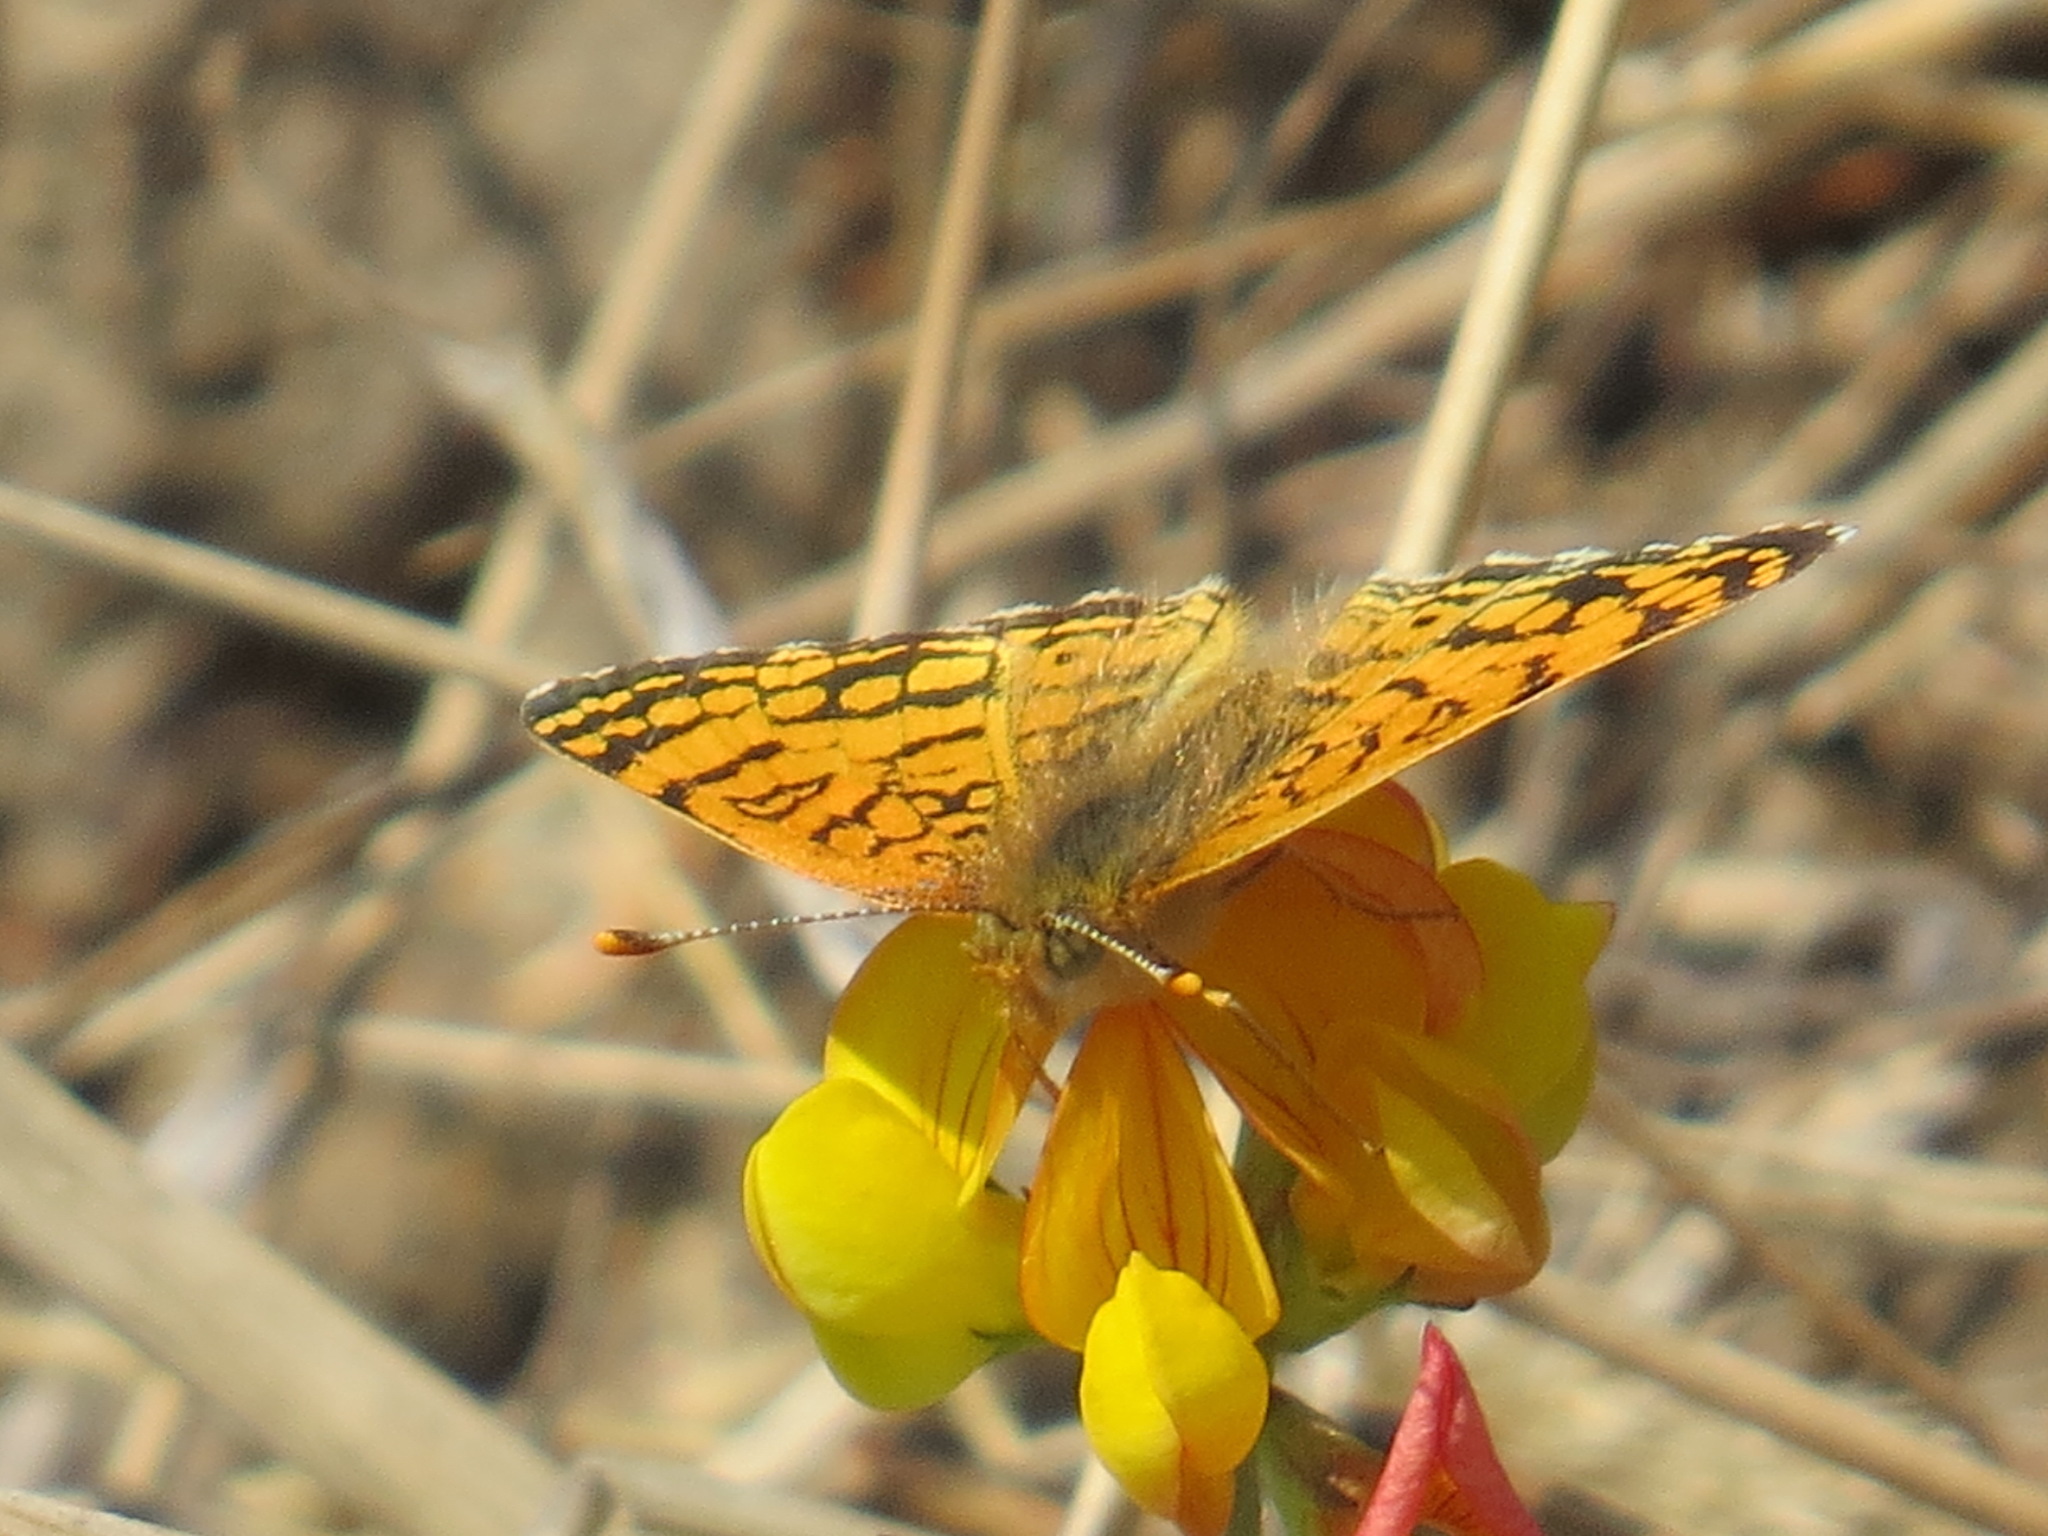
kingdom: Animalia
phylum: Arthropoda
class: Insecta
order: Lepidoptera
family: Nymphalidae
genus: Eresia
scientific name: Eresia aveyrona
